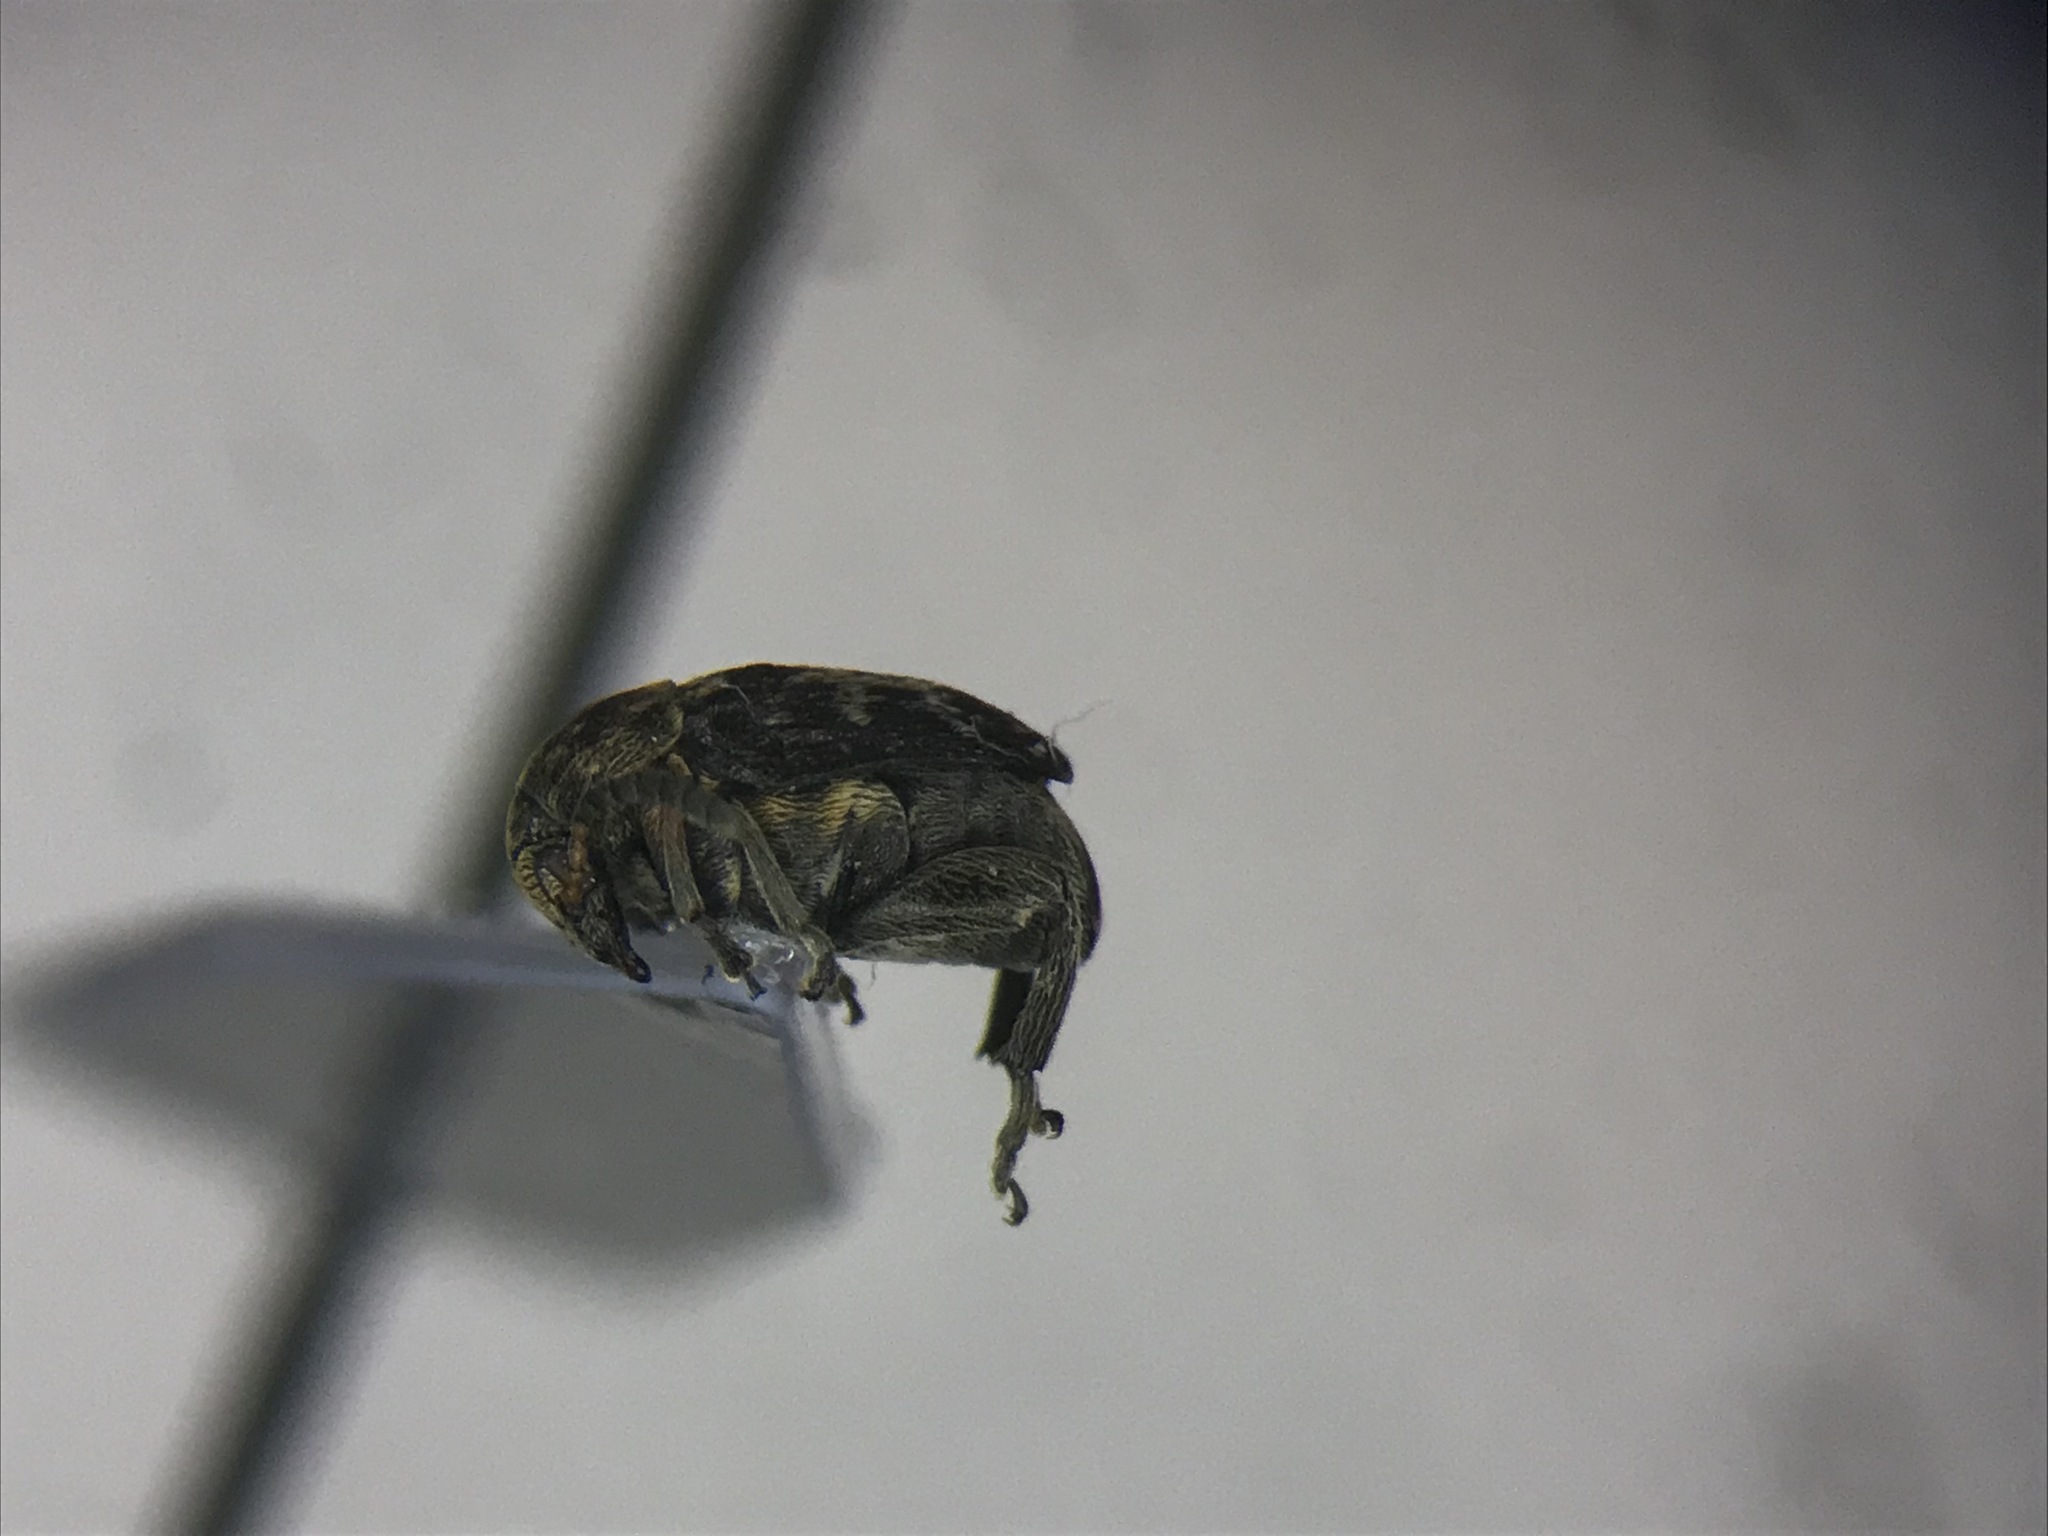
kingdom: Animalia
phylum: Arthropoda
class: Insecta
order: Coleoptera
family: Chrysomelidae
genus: Bruchus
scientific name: Bruchus affinis
